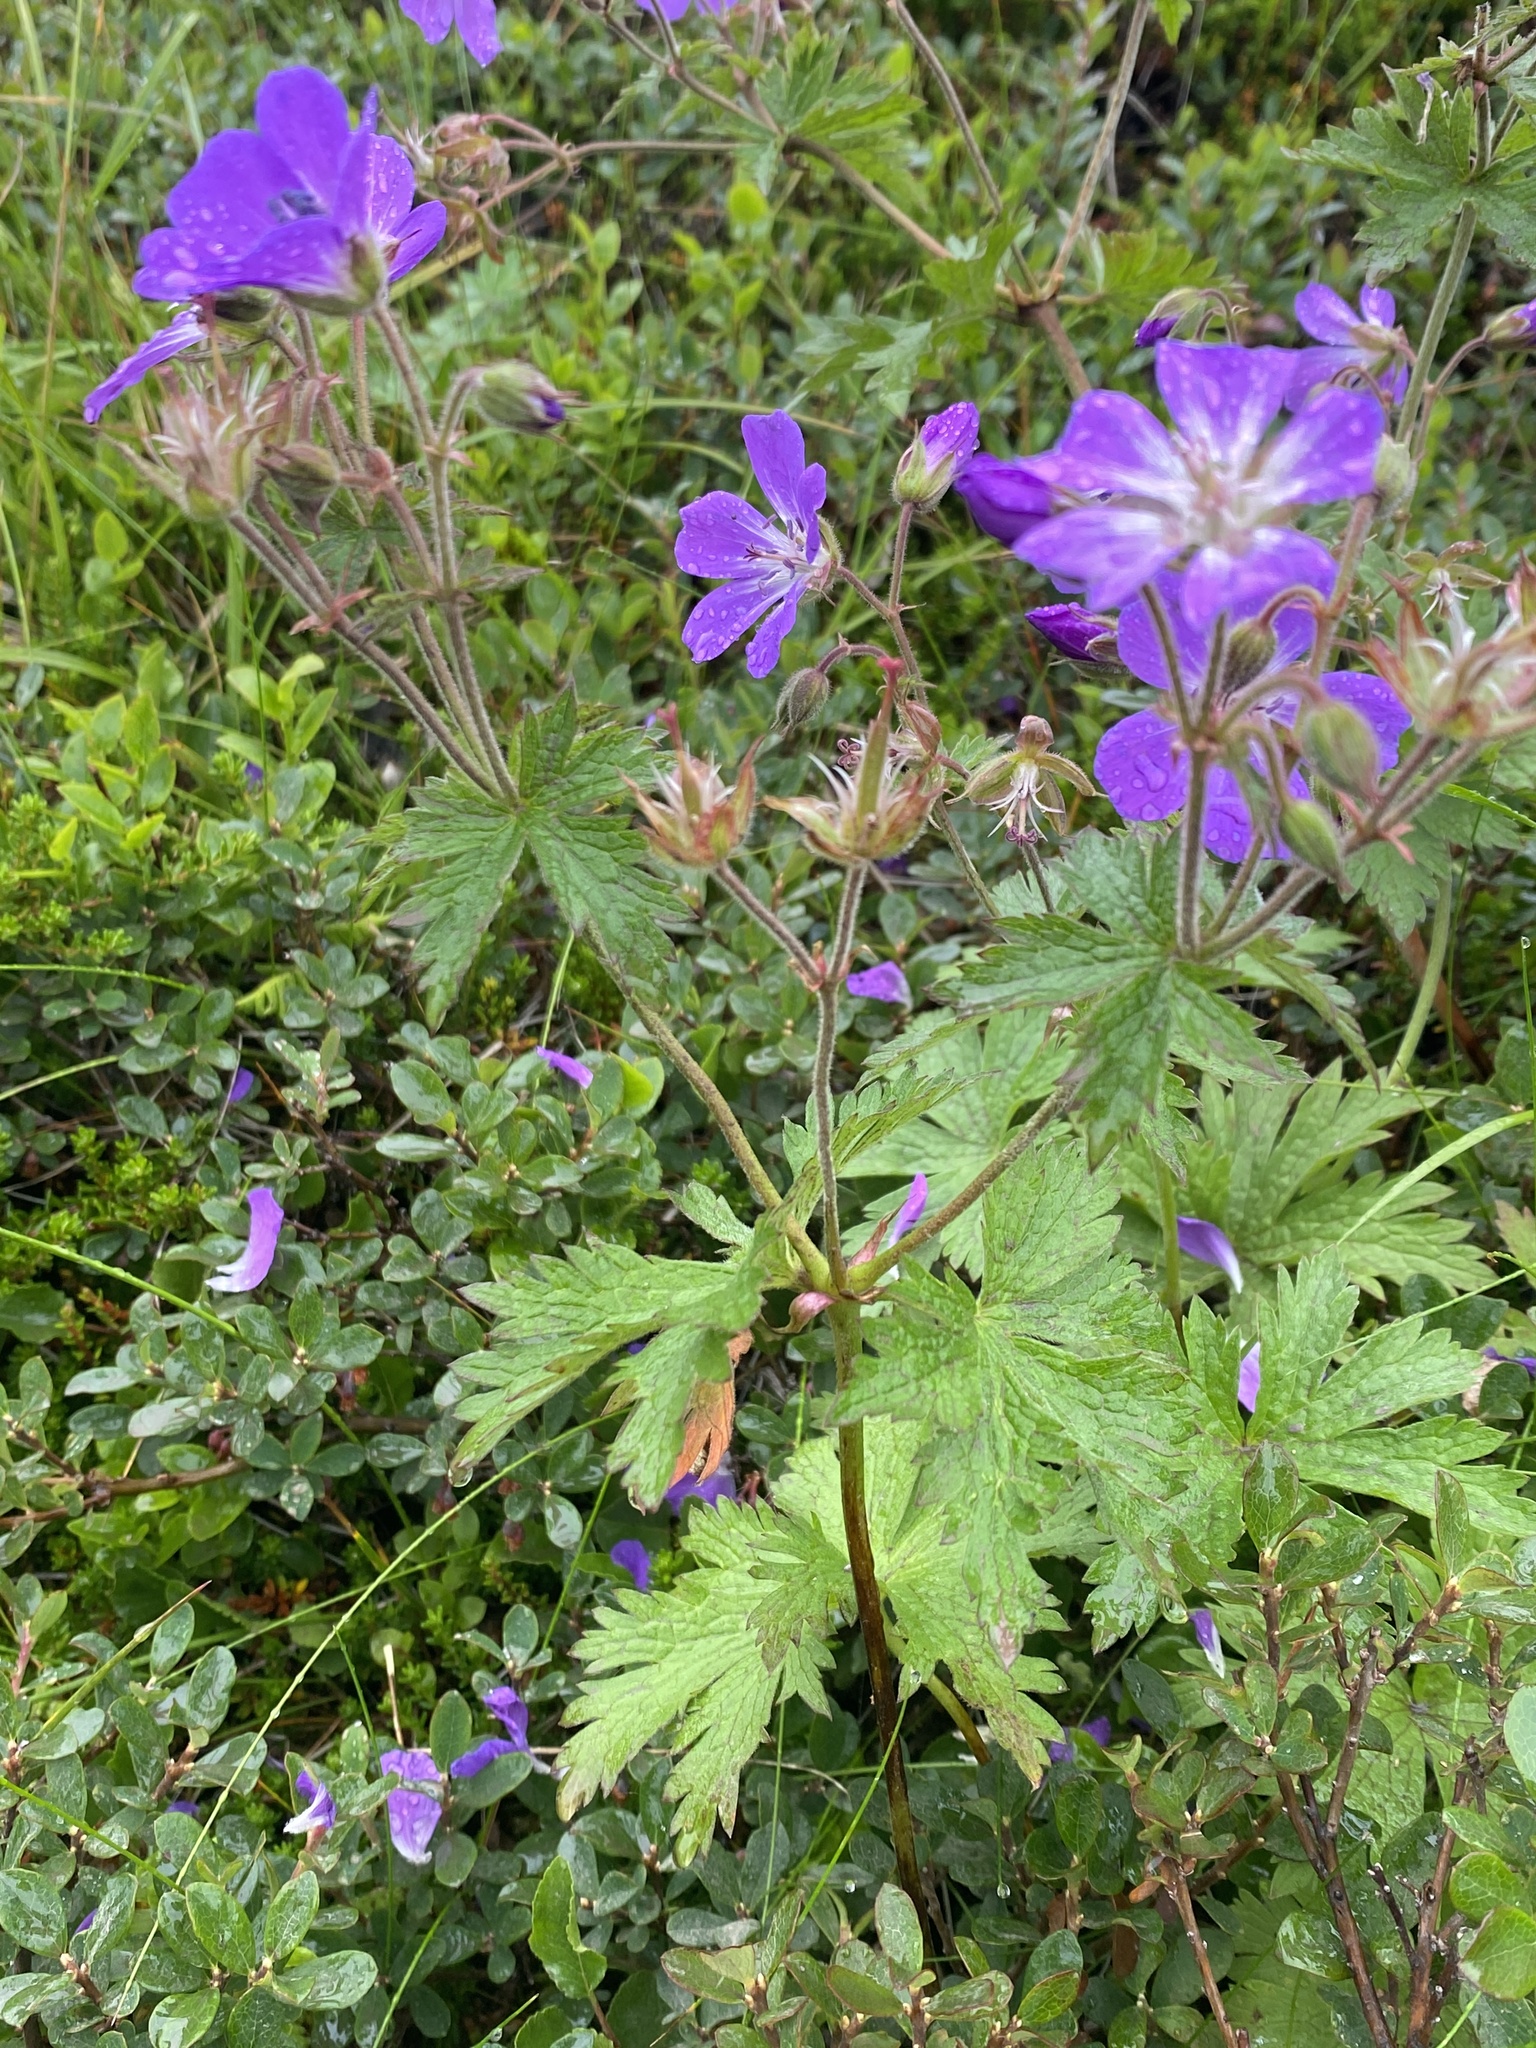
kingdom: Plantae
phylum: Tracheophyta
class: Magnoliopsida
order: Geraniales
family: Geraniaceae
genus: Geranium
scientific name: Geranium sylvaticum
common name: Wood crane's-bill
